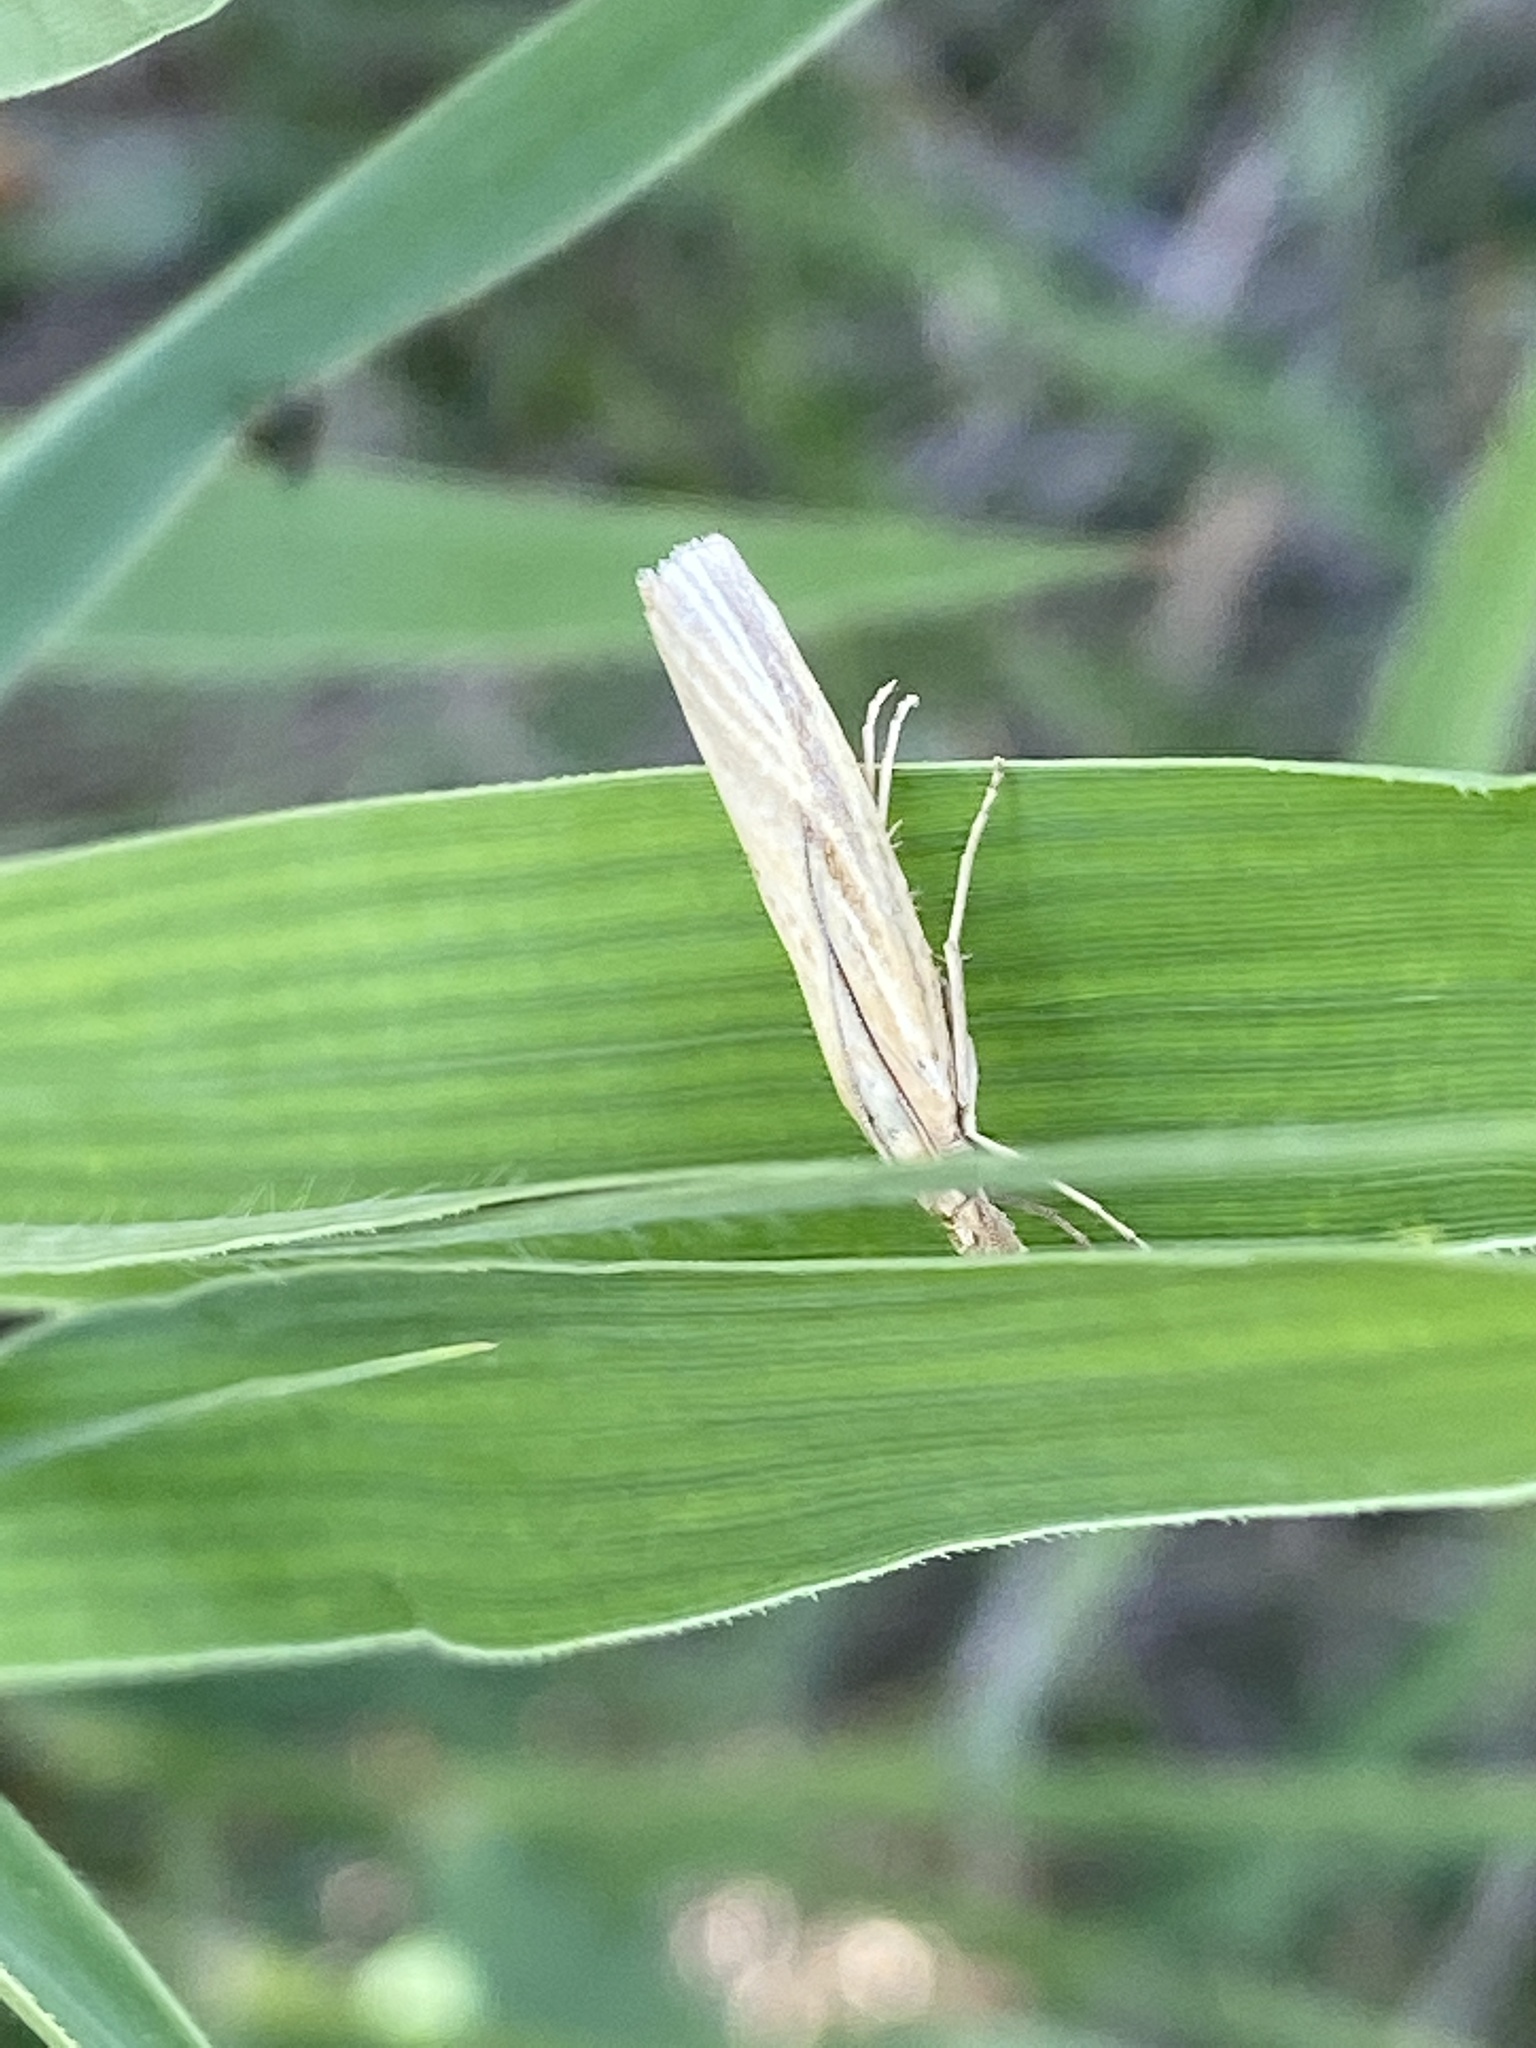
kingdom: Animalia
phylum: Arthropoda
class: Insecta
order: Lepidoptera
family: Crambidae
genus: Agriphila
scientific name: Agriphila tristellus
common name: Common grass-veneer
